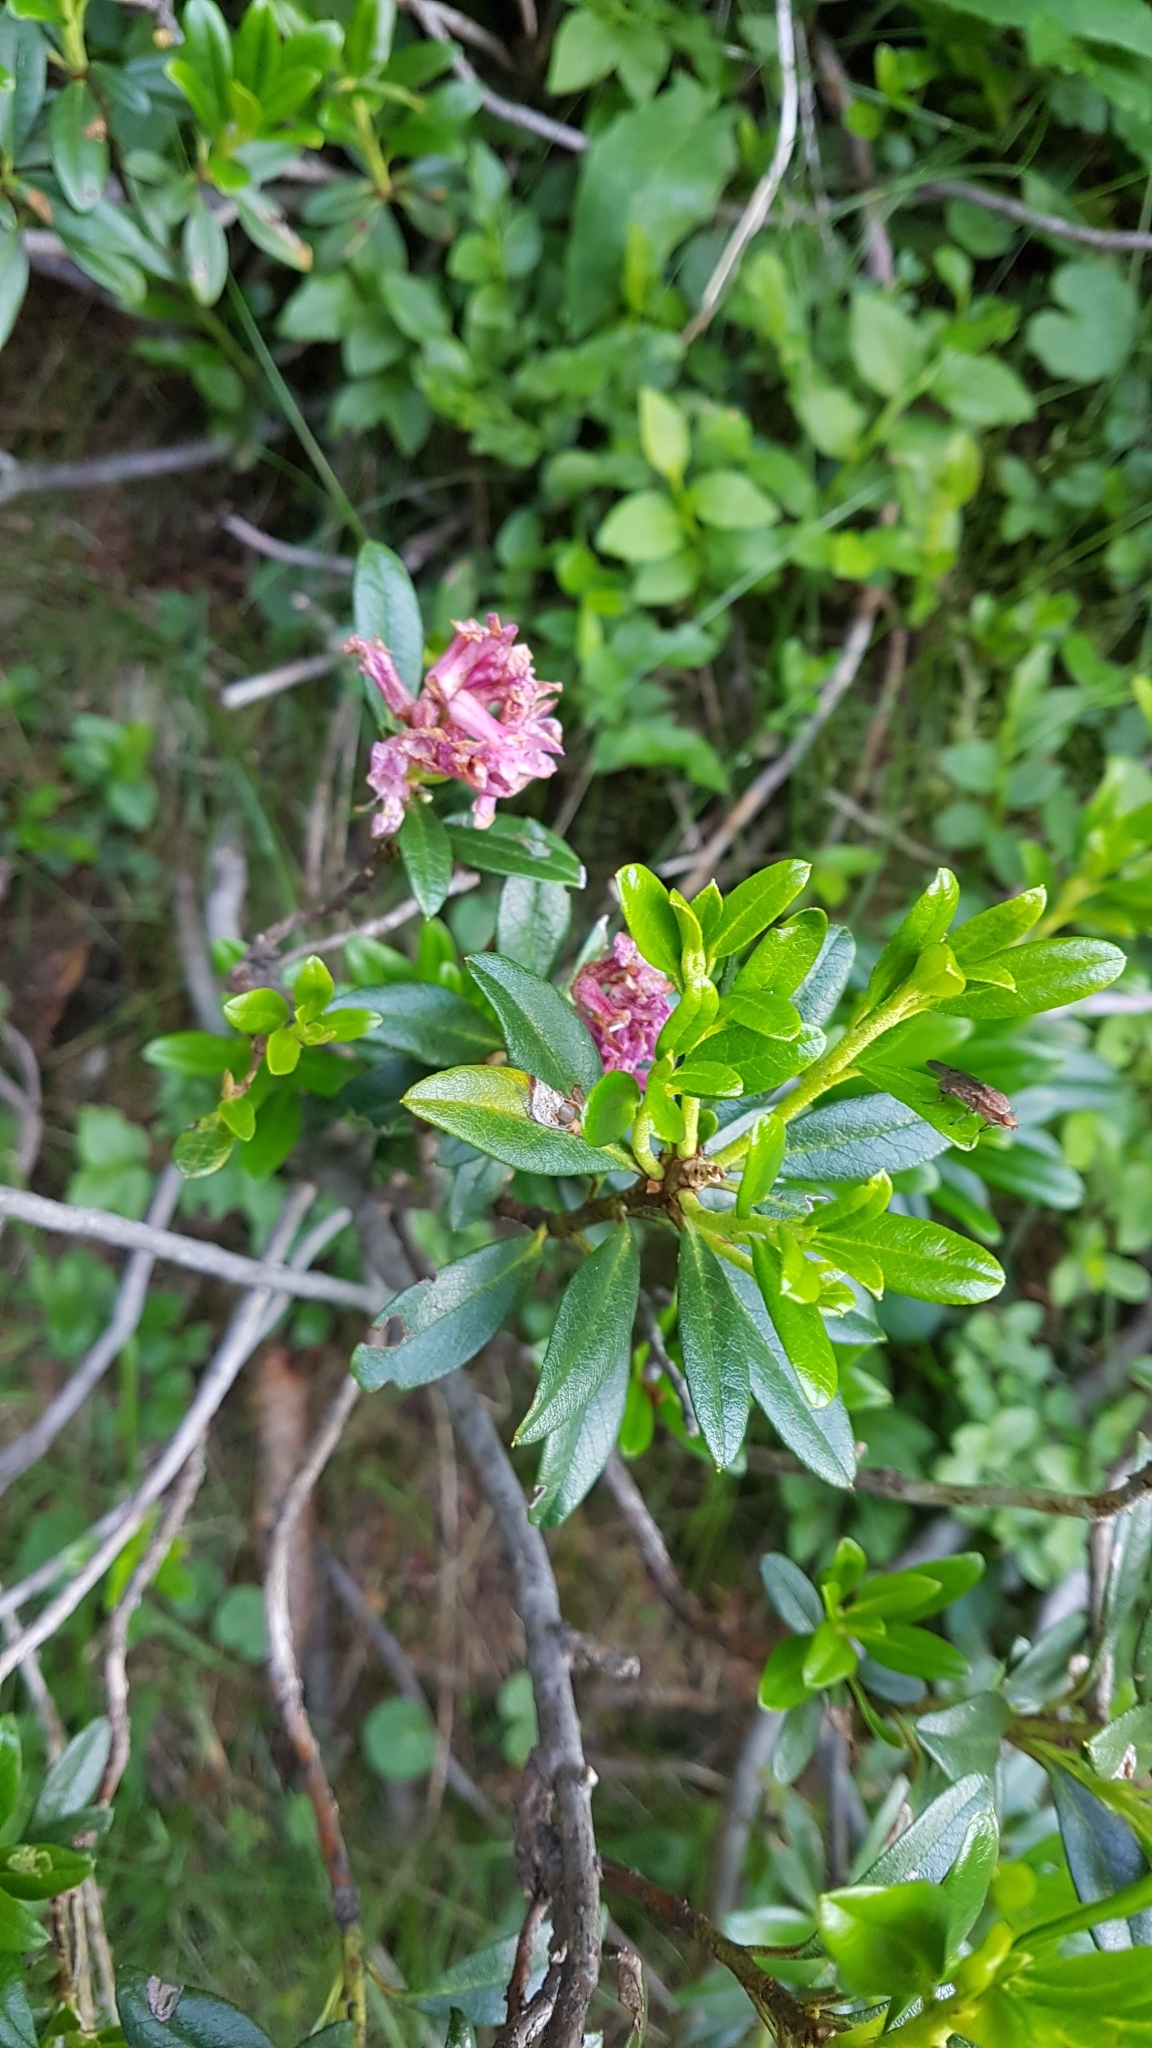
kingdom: Plantae
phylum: Tracheophyta
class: Magnoliopsida
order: Ericales
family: Ericaceae
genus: Rhododendron
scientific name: Rhododendron ferrugineum
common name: Alpenrose
